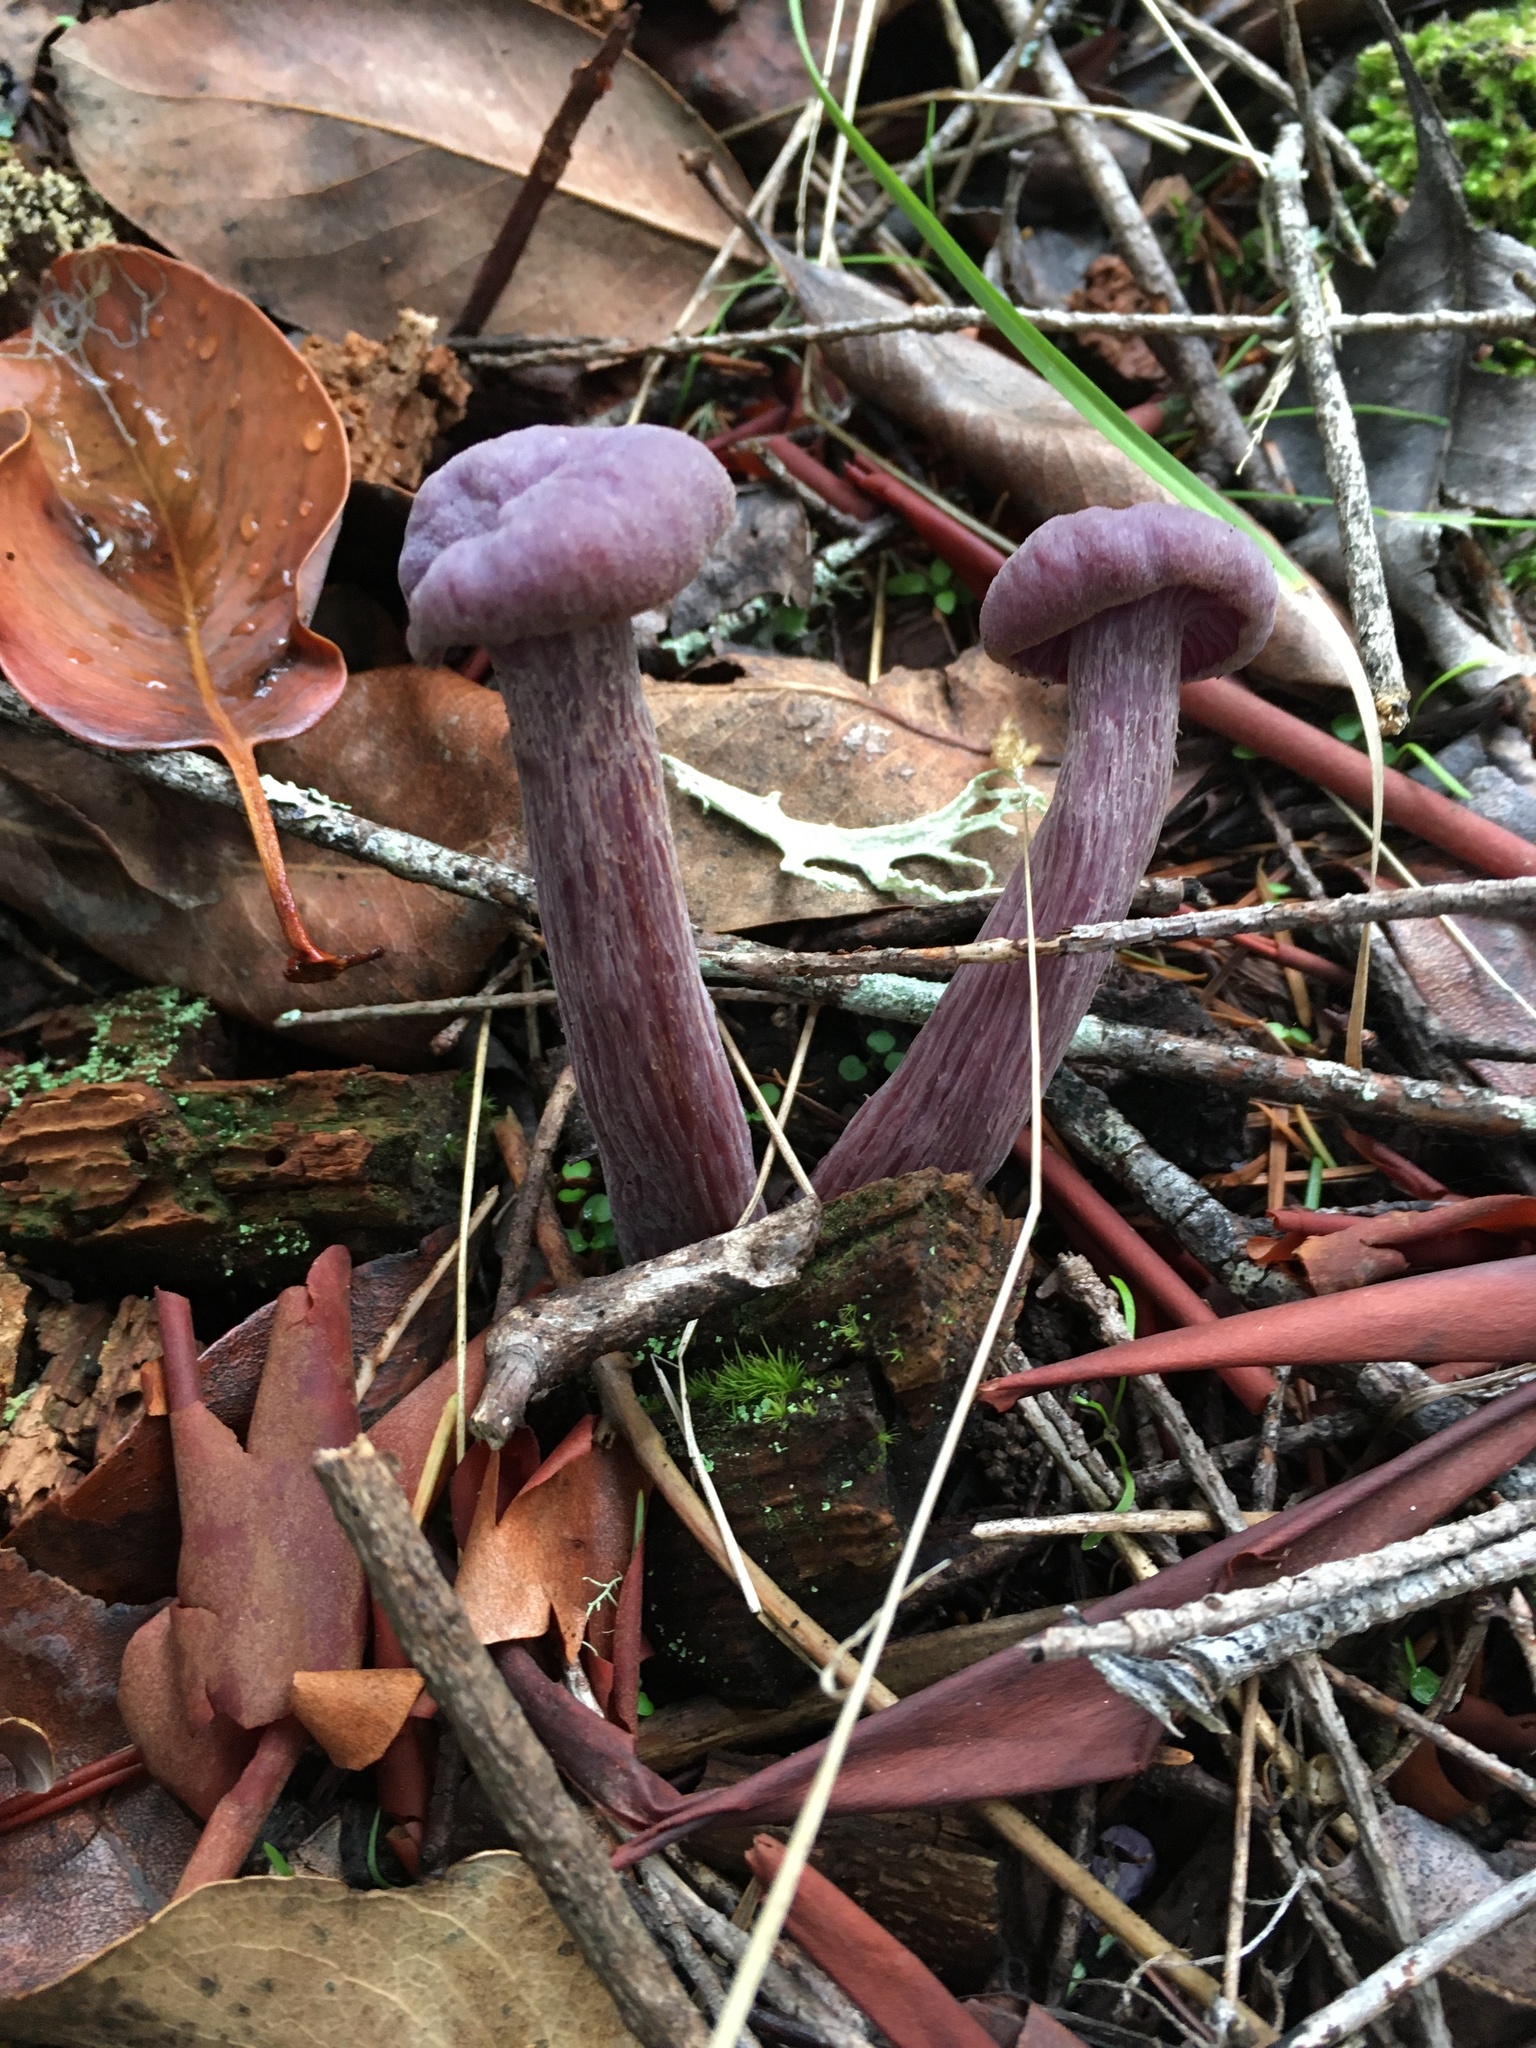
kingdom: Fungi
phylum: Basidiomycota
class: Agaricomycetes
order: Agaricales
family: Hydnangiaceae
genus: Laccaria
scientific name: Laccaria amethysteo-occidentalis
